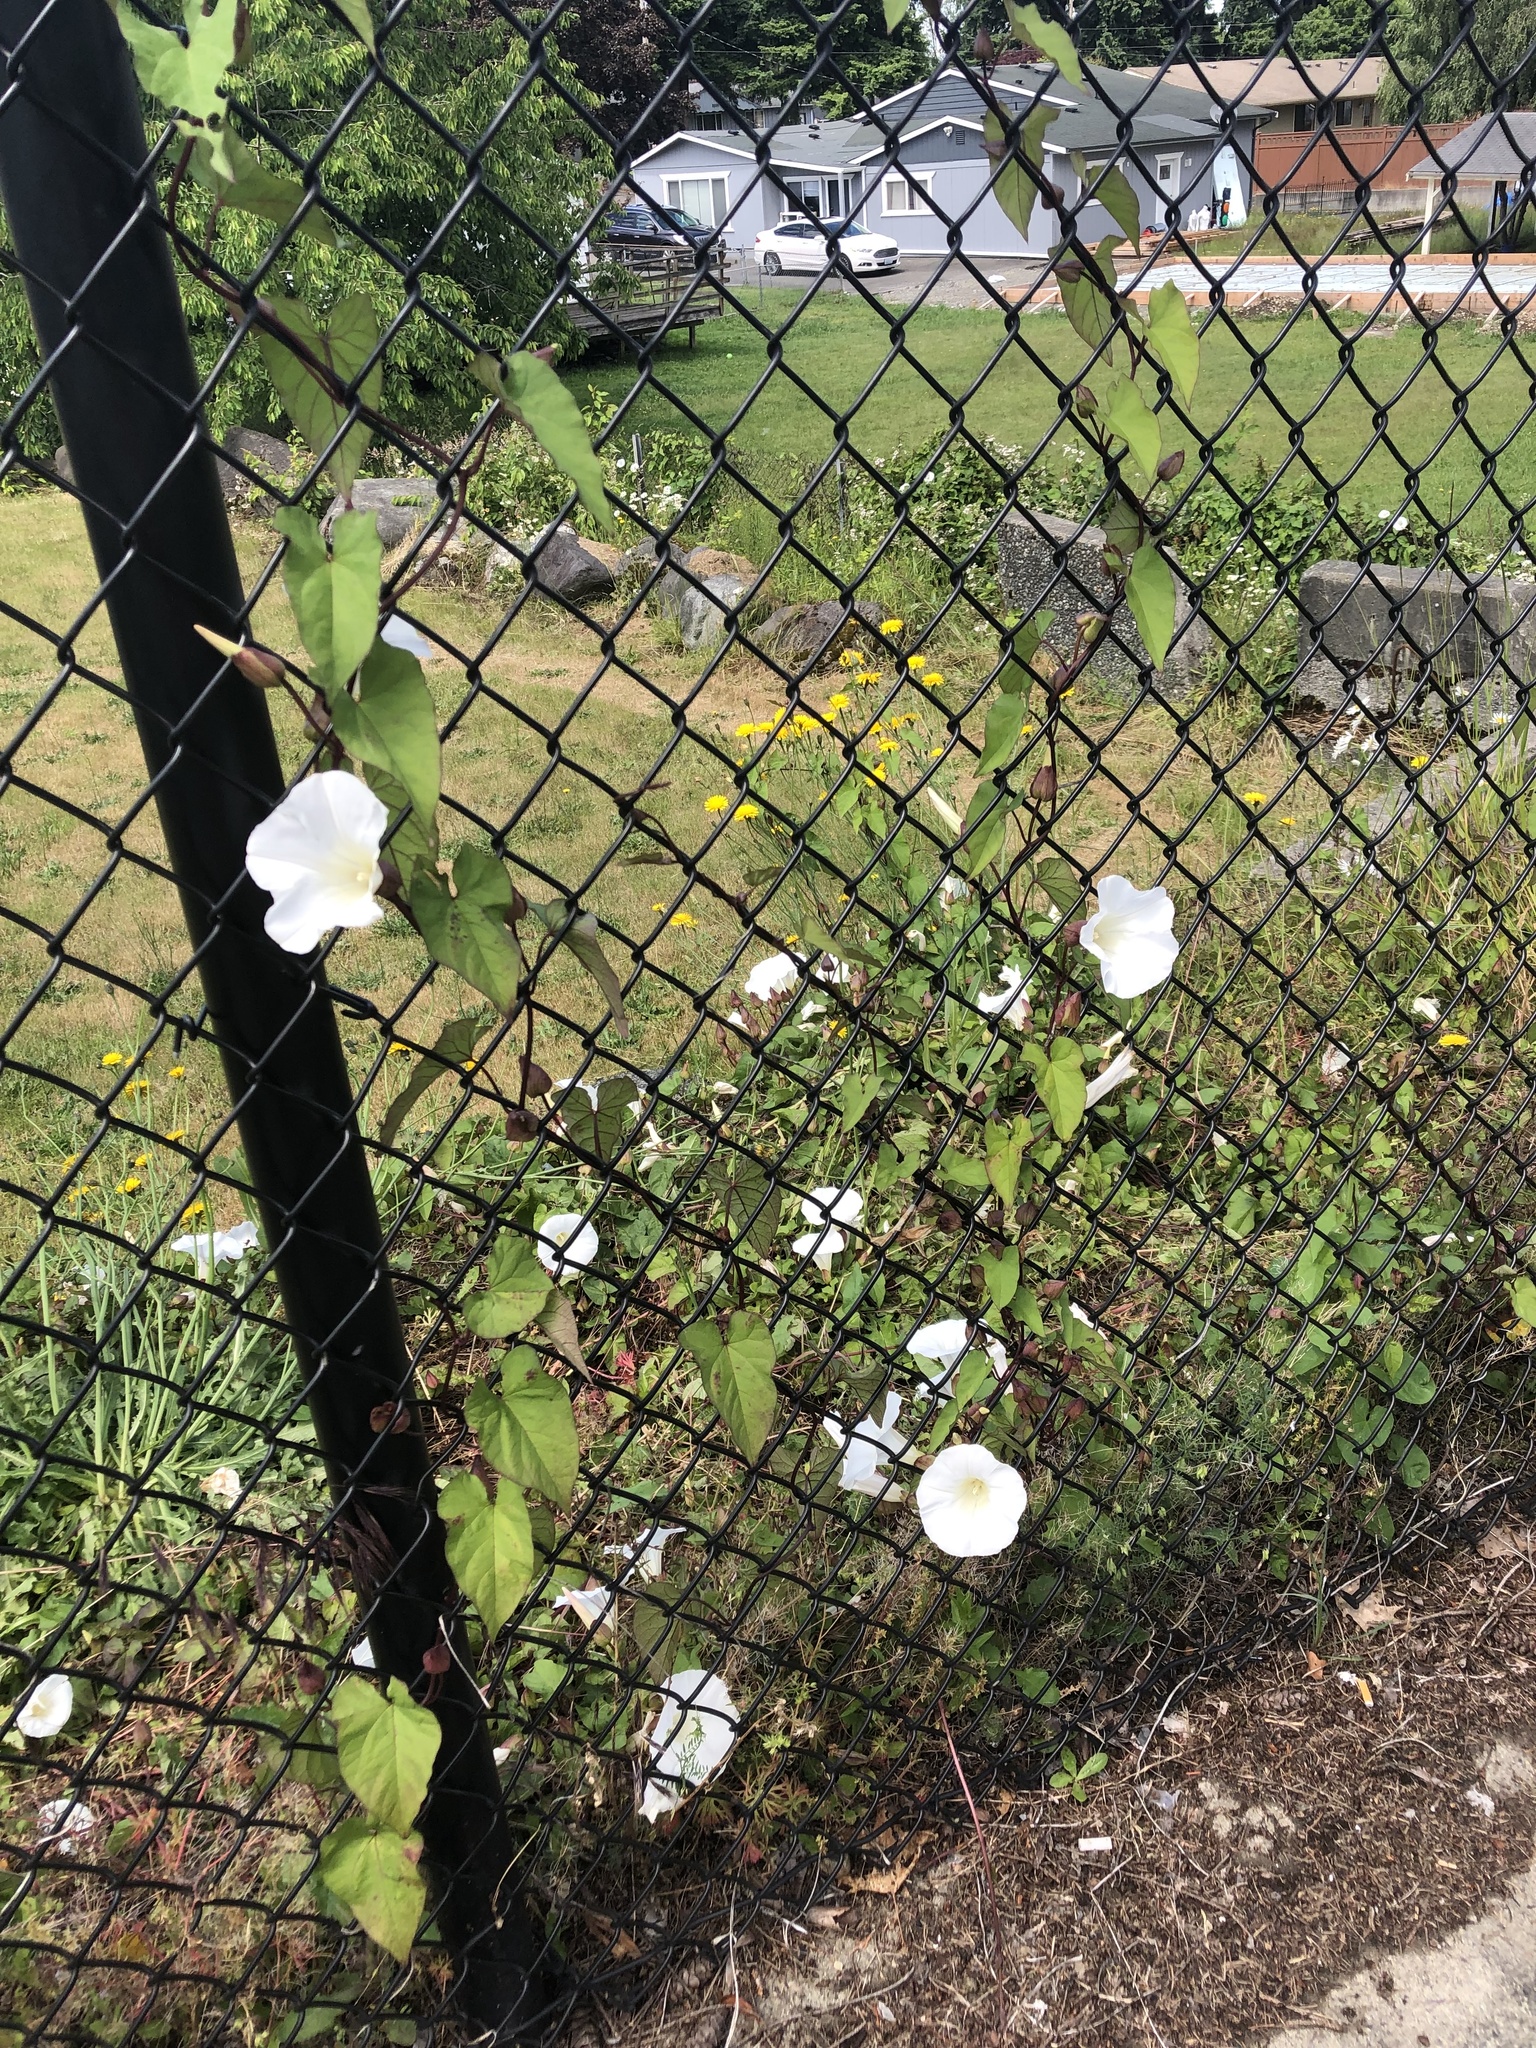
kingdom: Plantae
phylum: Tracheophyta
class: Magnoliopsida
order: Solanales
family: Convolvulaceae
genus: Calystegia
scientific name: Calystegia silvatica
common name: Large bindweed
